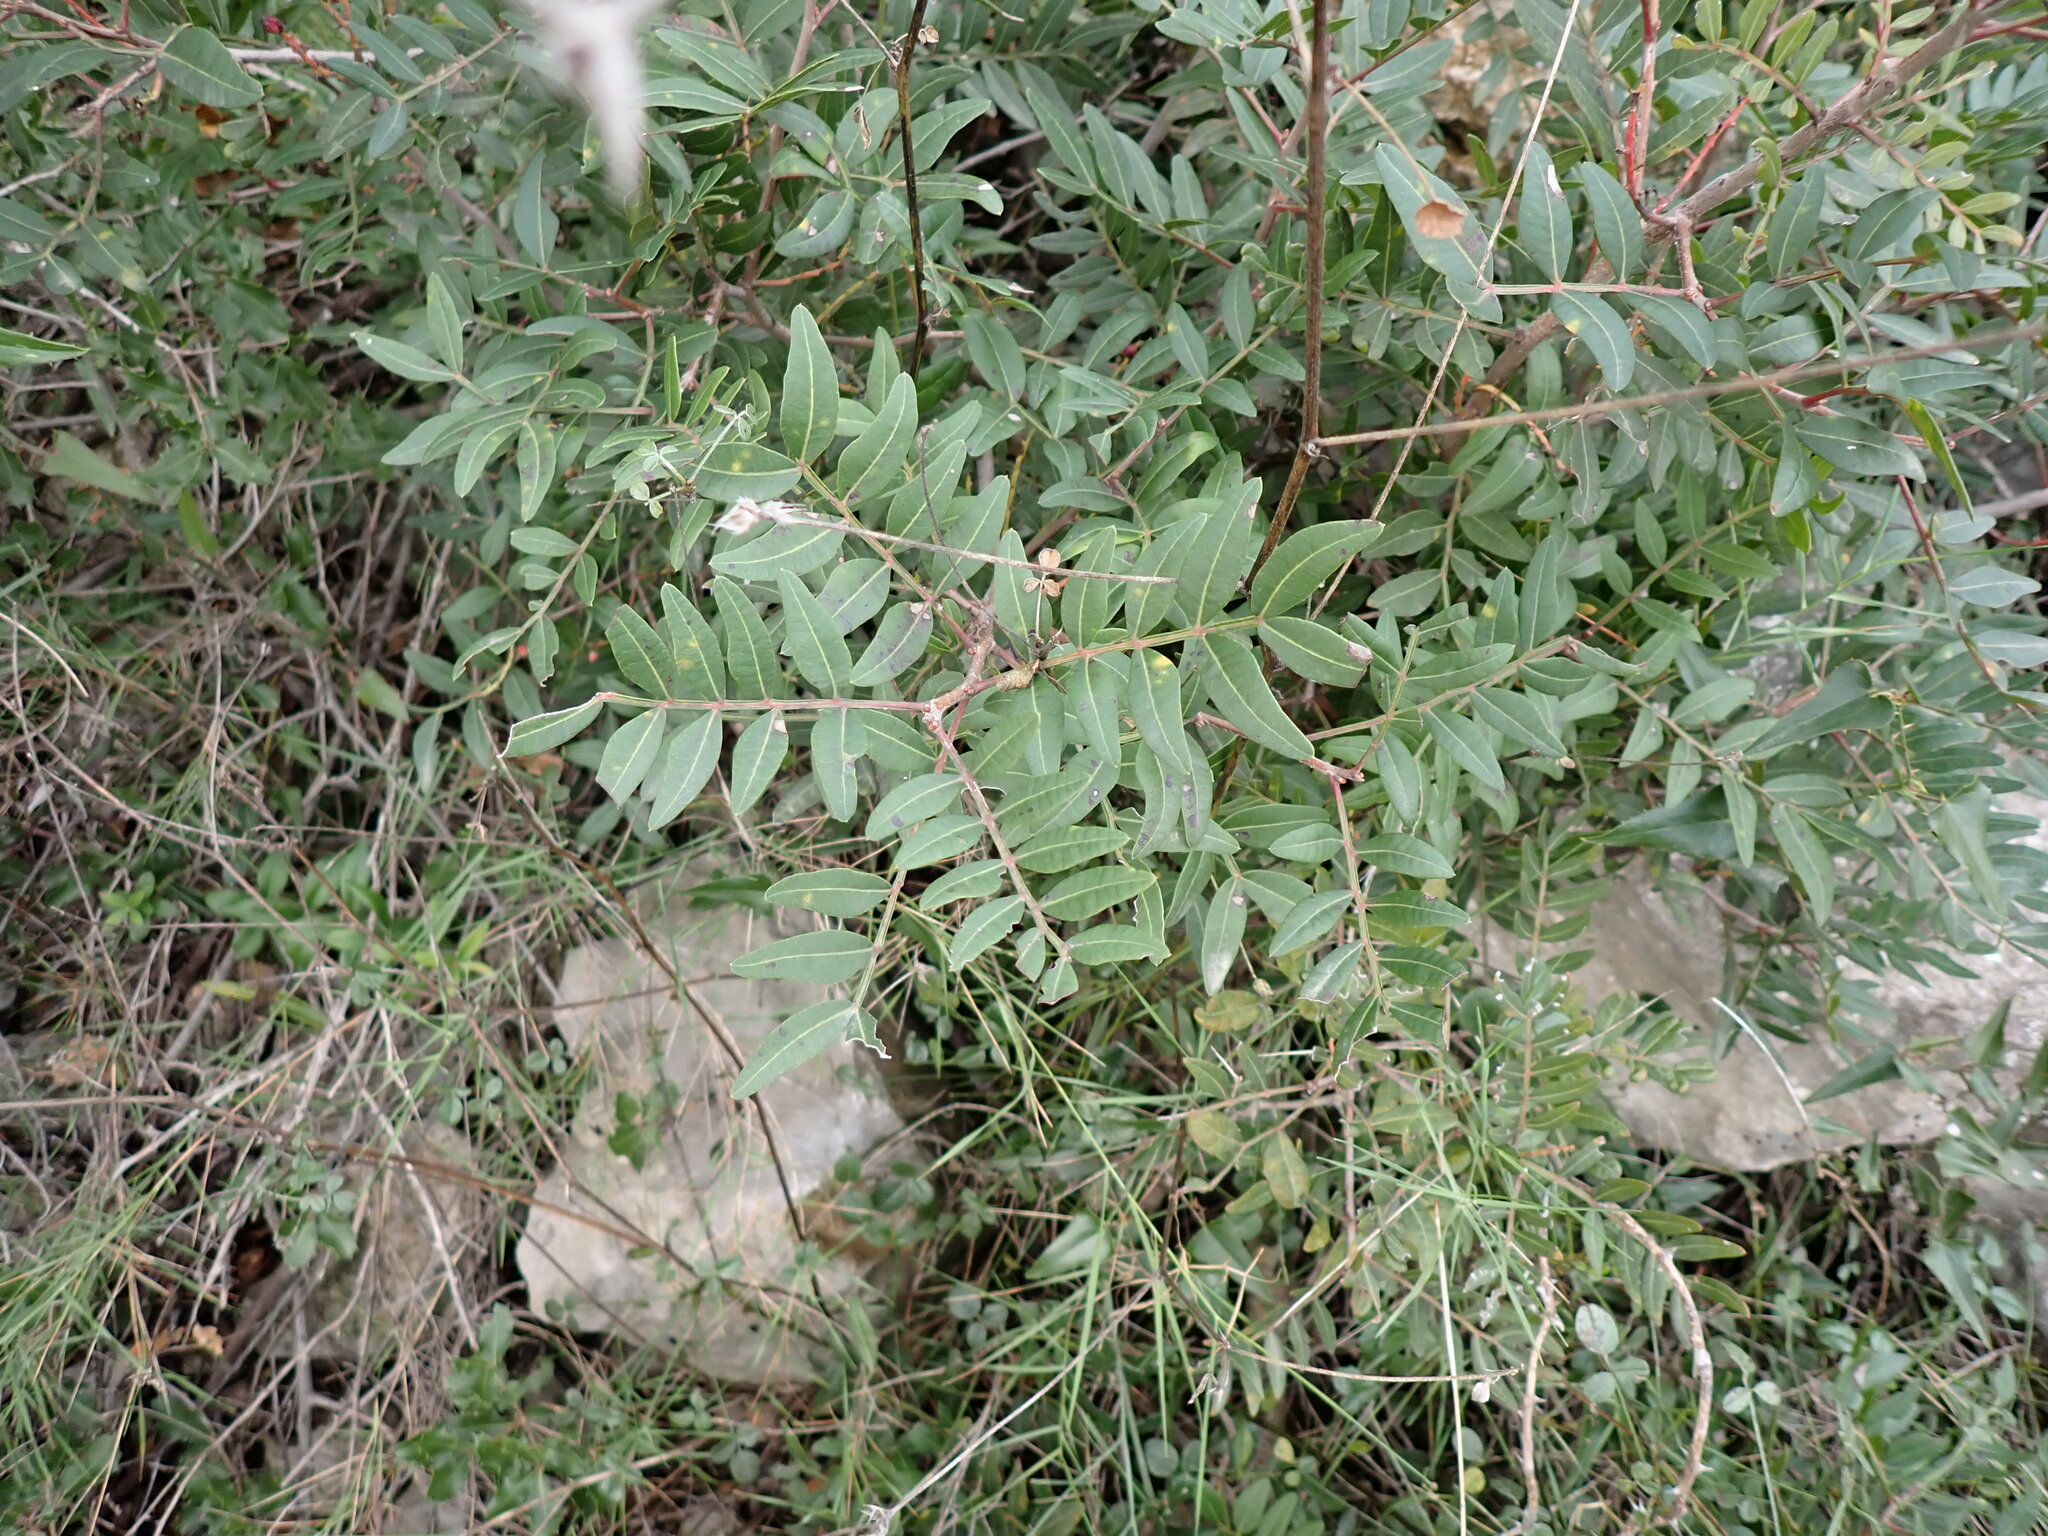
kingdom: Plantae
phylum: Tracheophyta
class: Magnoliopsida
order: Sapindales
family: Anacardiaceae
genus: Pistacia
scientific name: Pistacia lentiscus
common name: Lentisk
